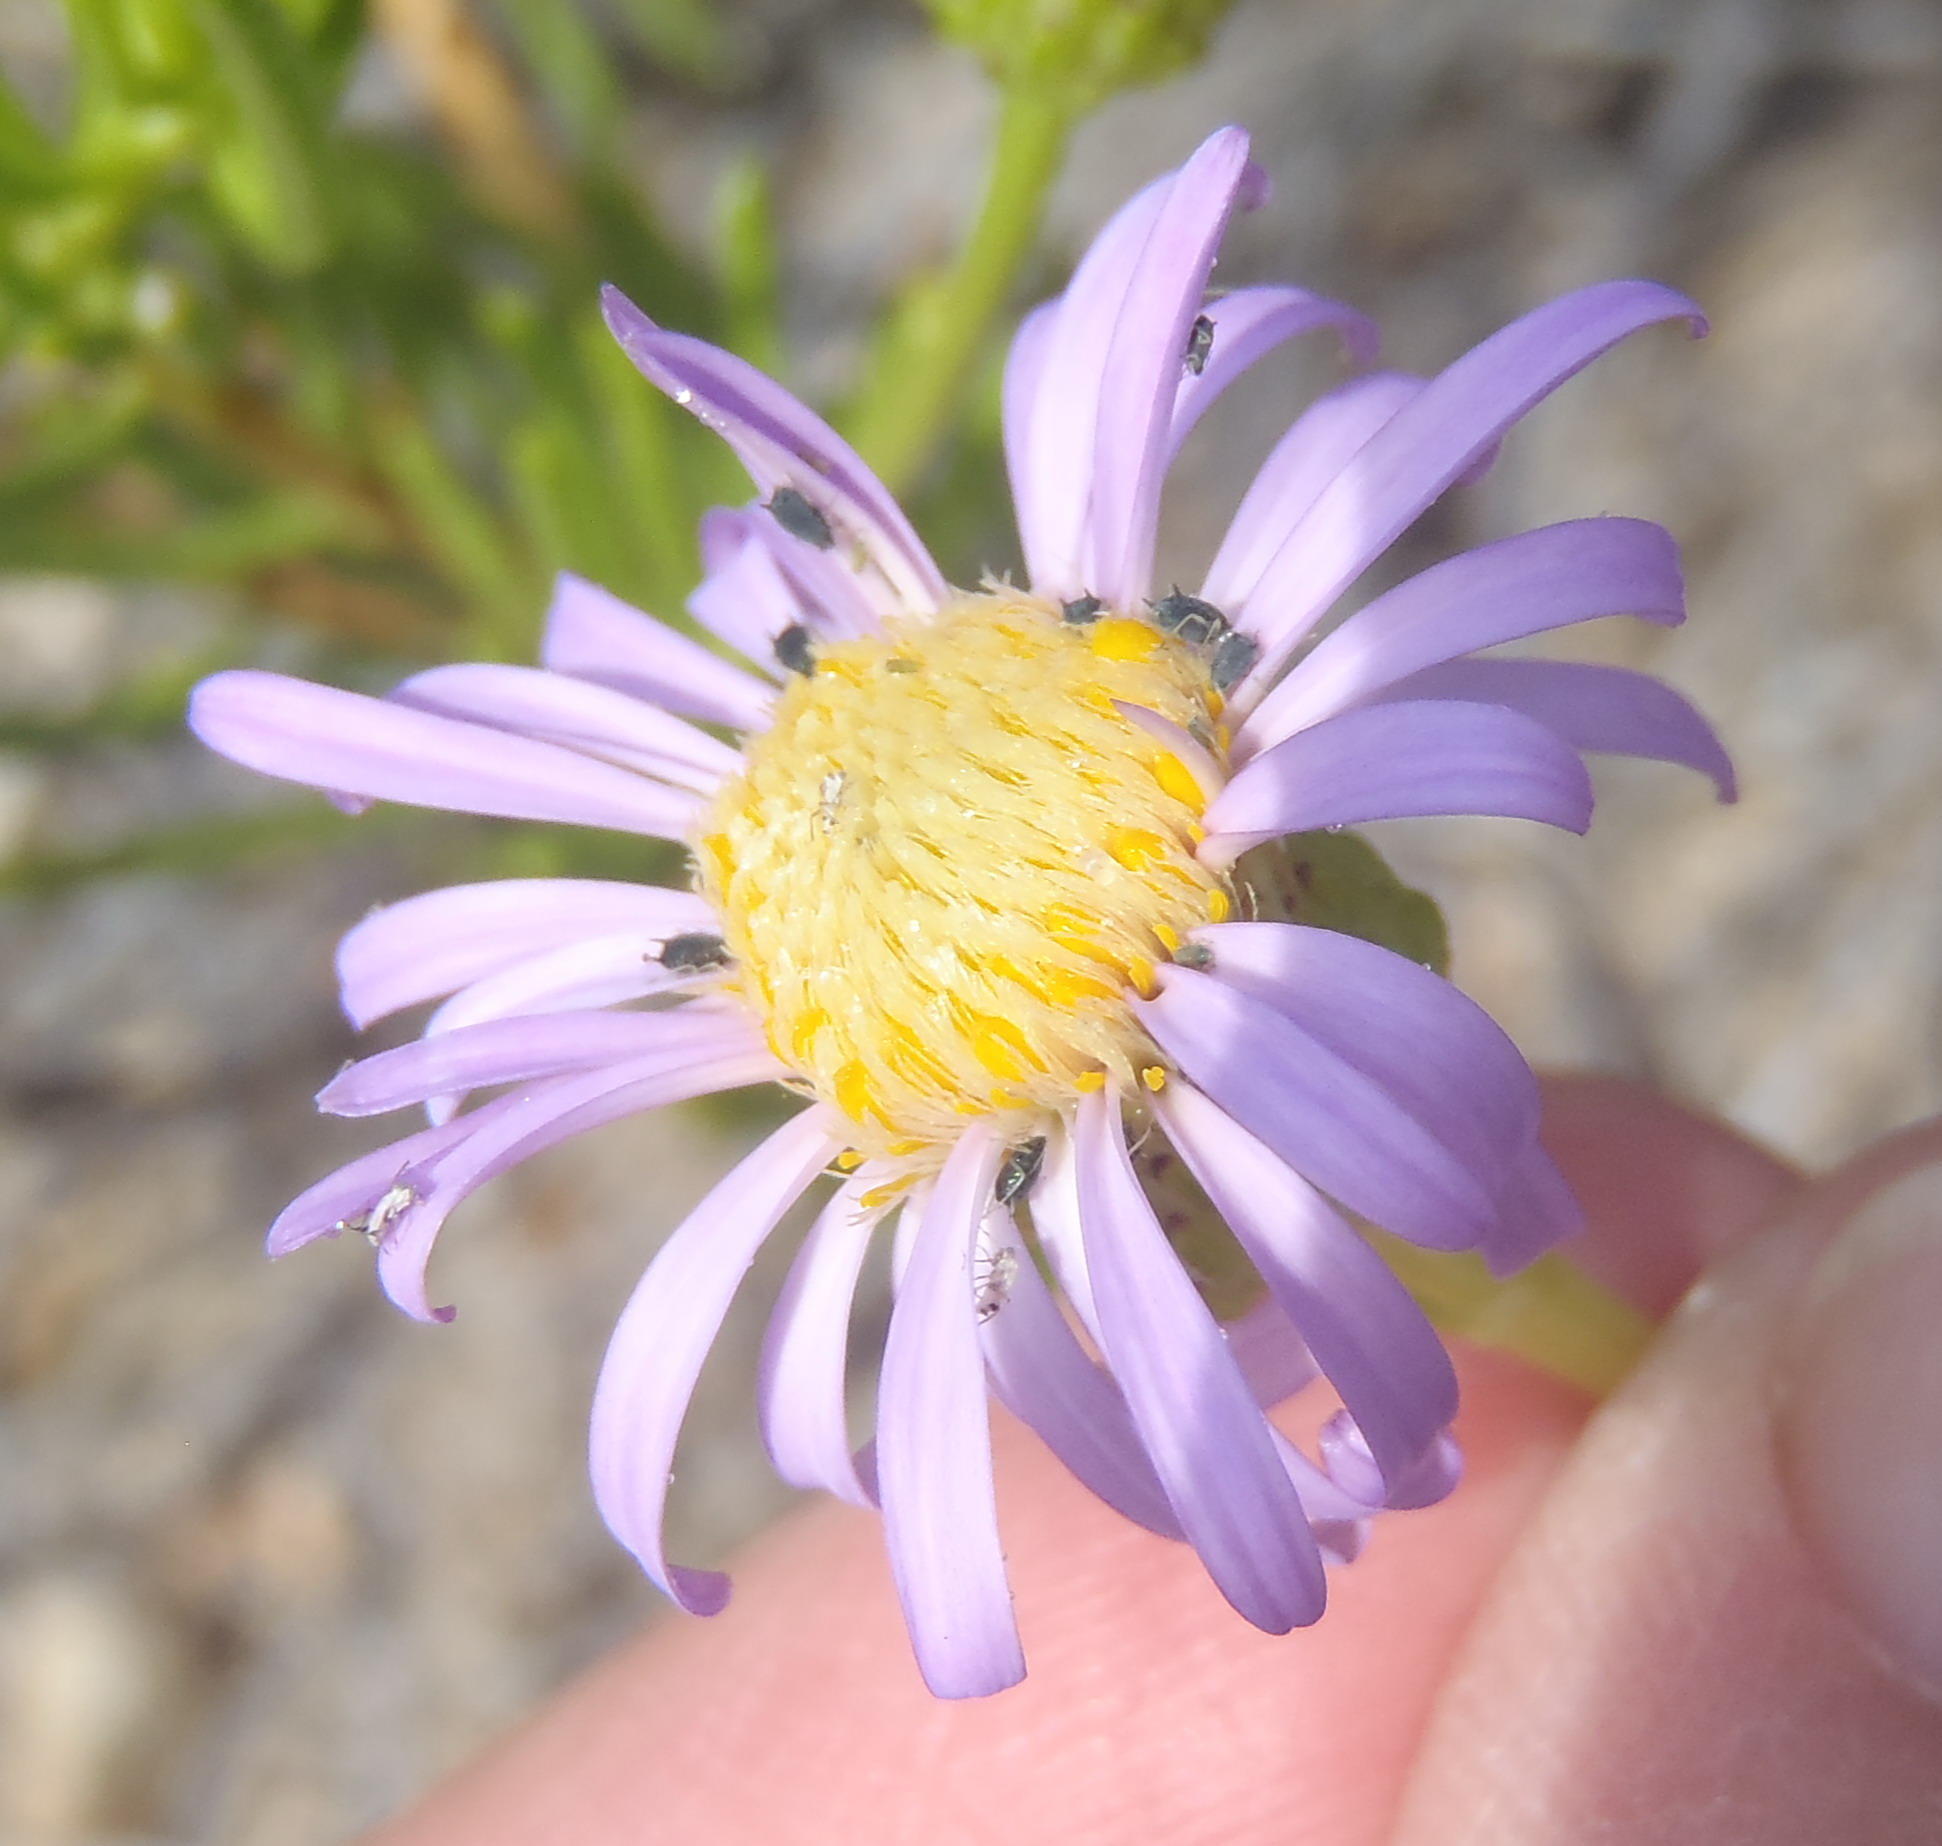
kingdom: Plantae
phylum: Tracheophyta
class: Magnoliopsida
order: Asterales
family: Asteraceae
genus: Felicia
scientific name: Felicia filifolia
